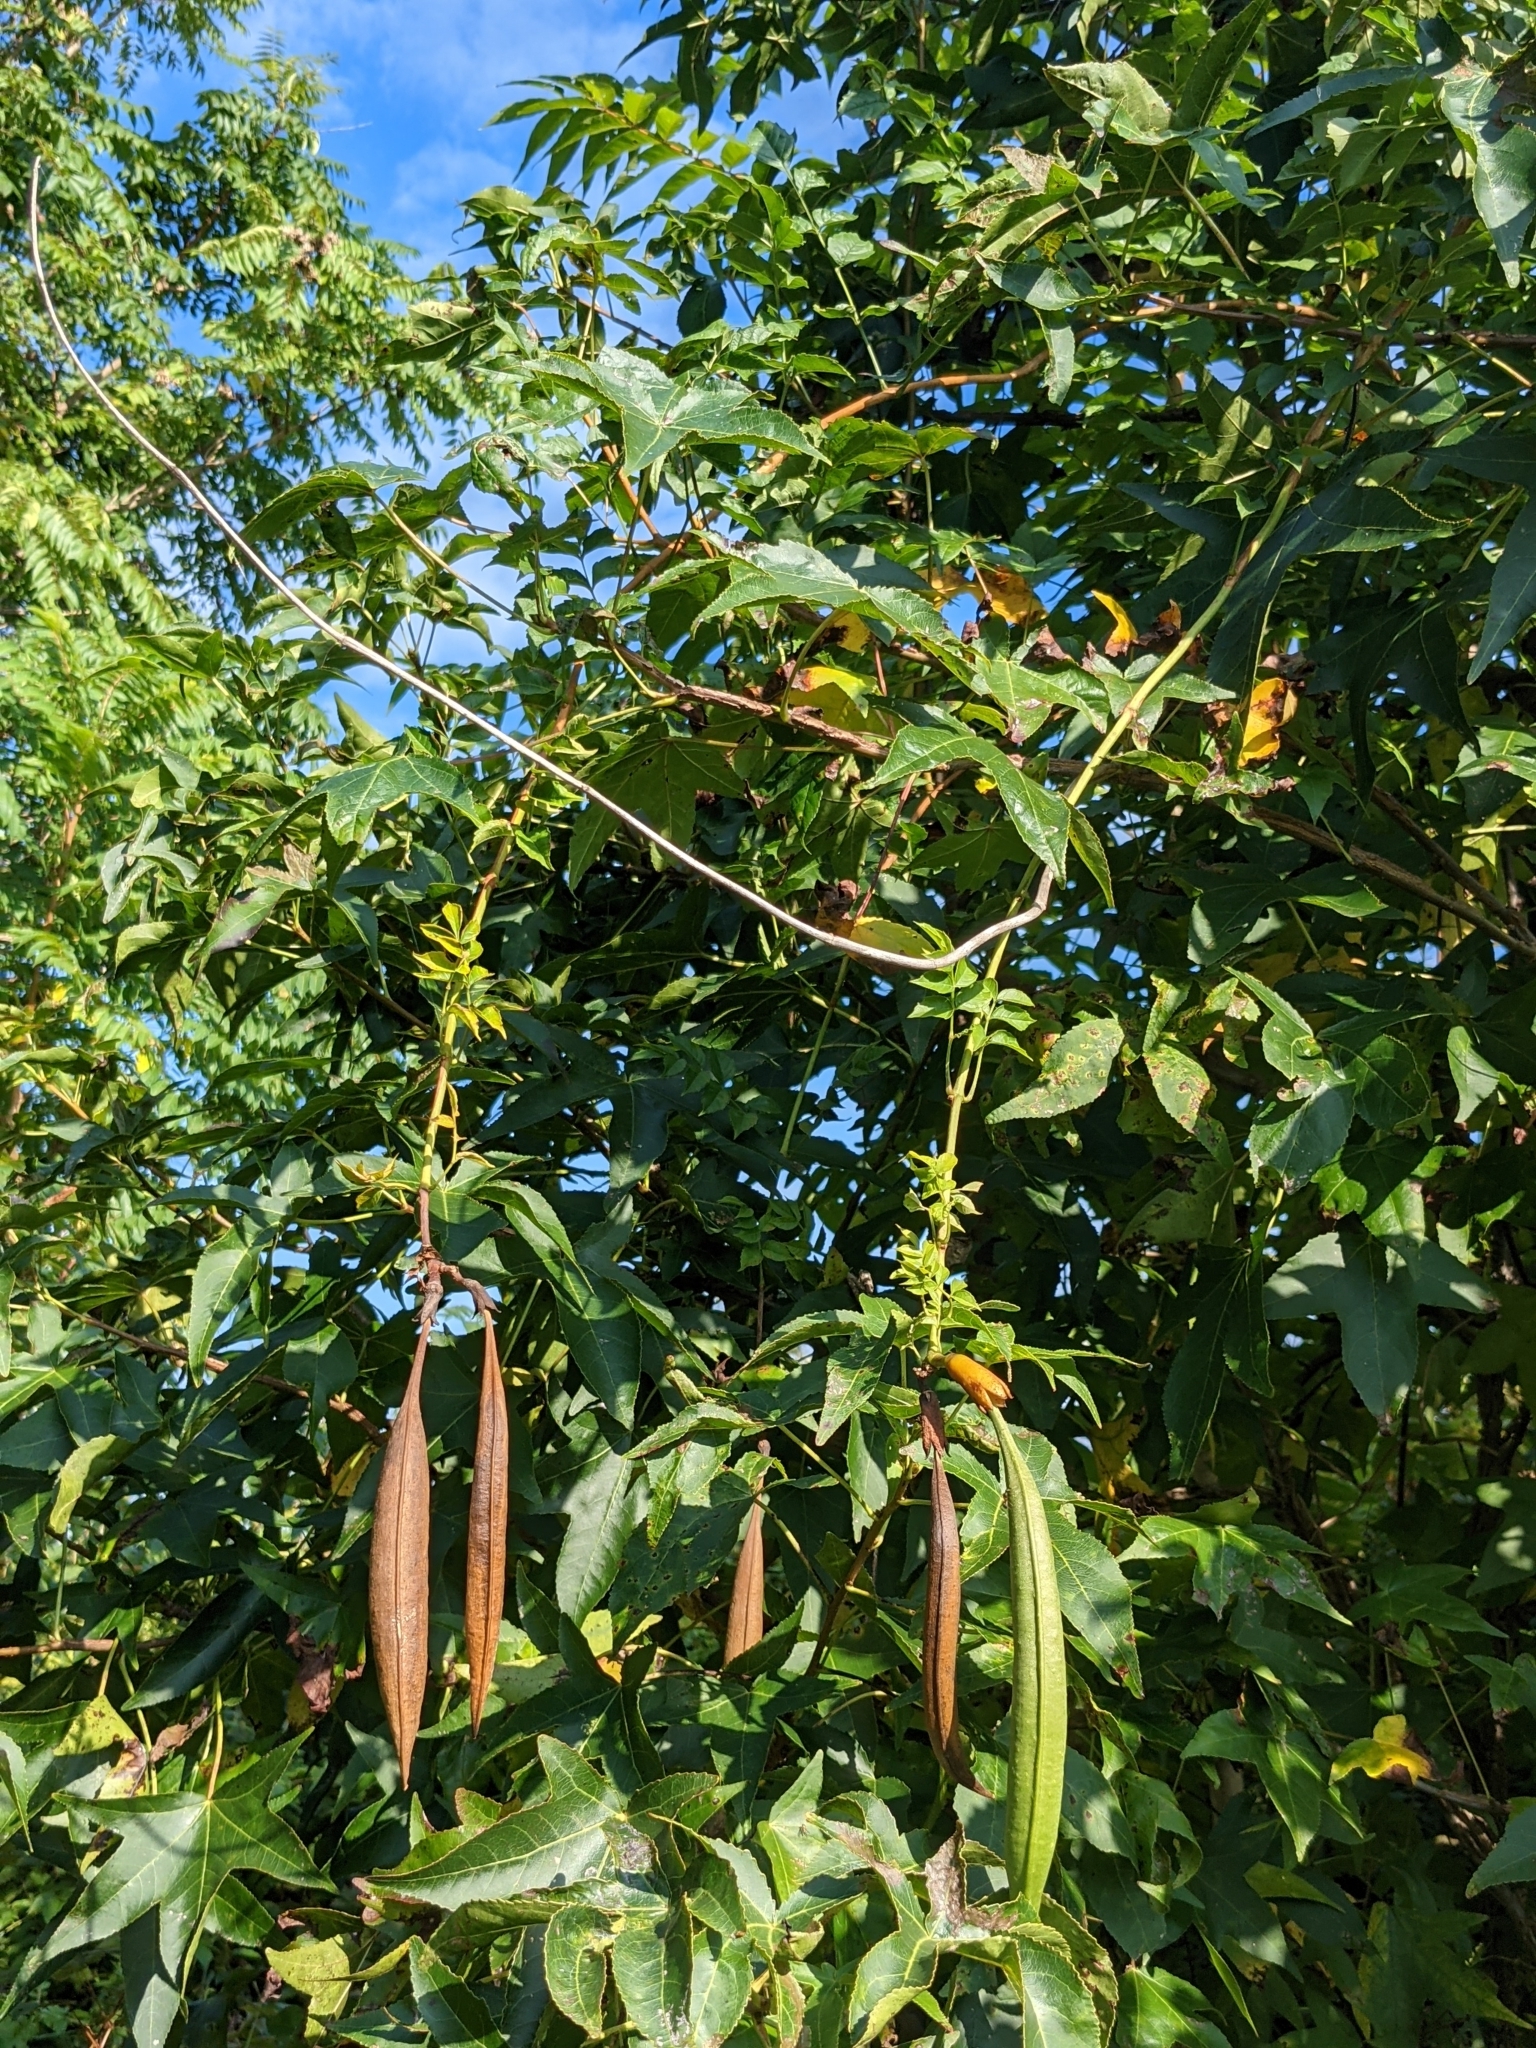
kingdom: Plantae
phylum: Tracheophyta
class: Magnoliopsida
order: Lamiales
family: Bignoniaceae
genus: Campsis
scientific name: Campsis radicans
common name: Trumpet-creeper
